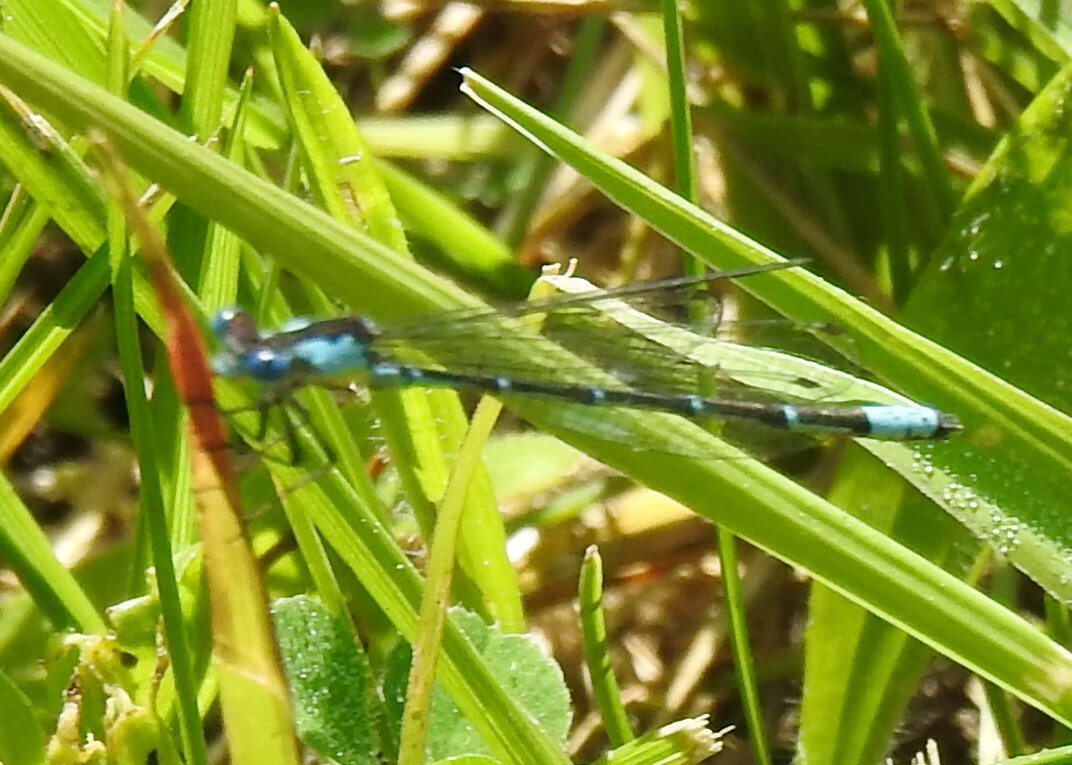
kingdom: Animalia
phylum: Arthropoda
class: Insecta
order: Odonata
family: Coenagrionidae
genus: Chromagrion
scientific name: Chromagrion conditum
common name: Aurora damsel
